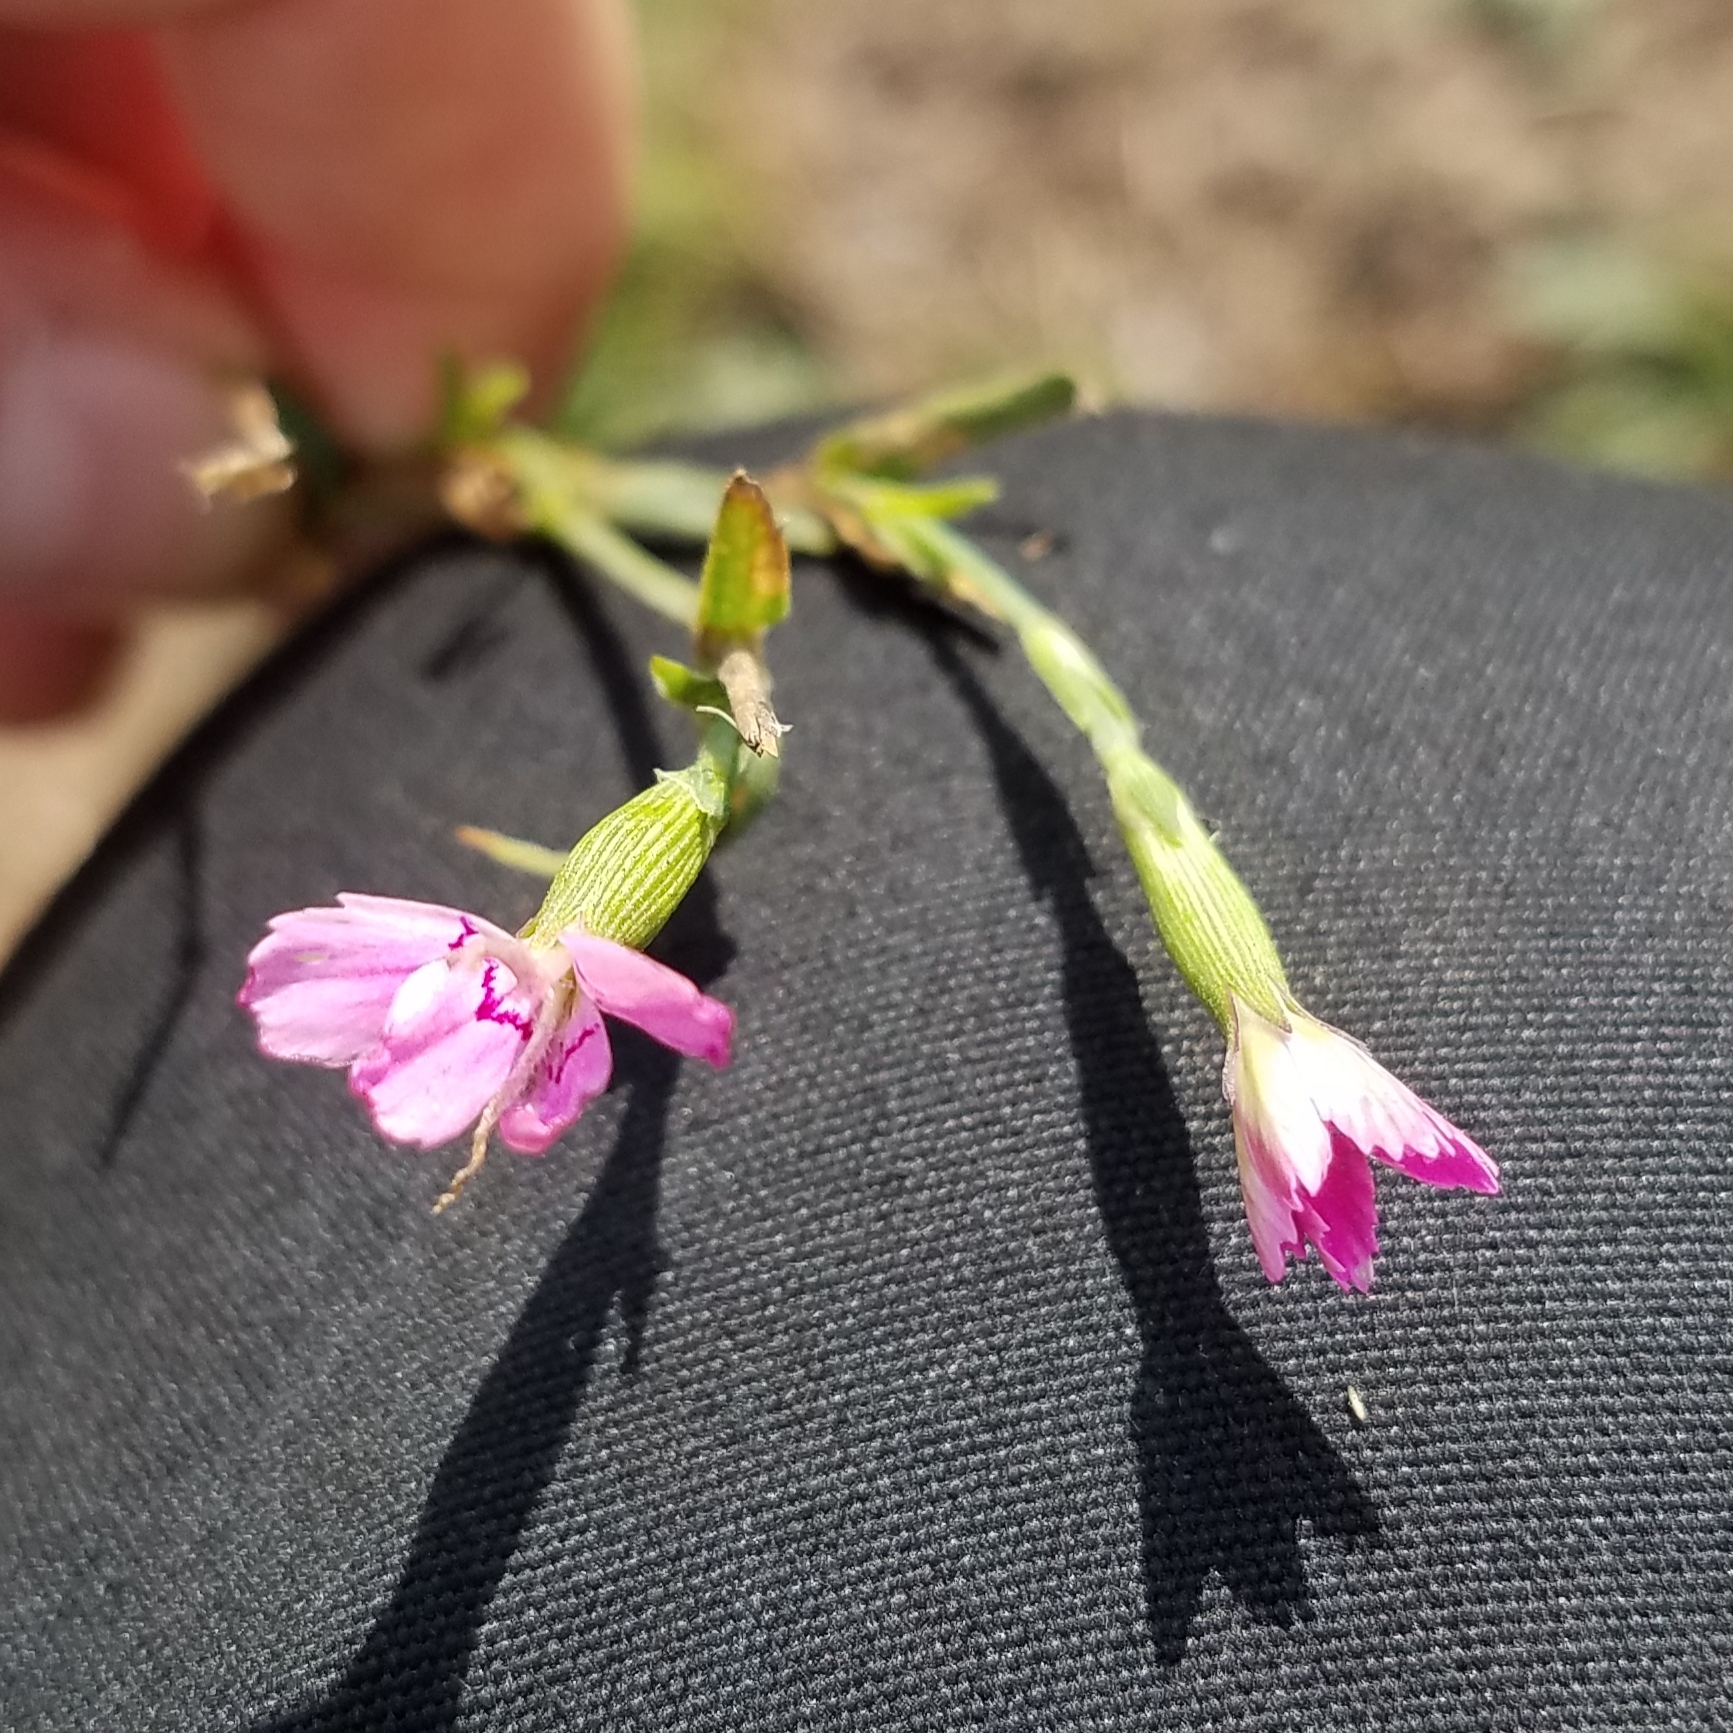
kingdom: Plantae
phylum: Tracheophyta
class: Magnoliopsida
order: Caryophyllales
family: Caryophyllaceae
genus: Dianthus
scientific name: Dianthus deltoides
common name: Maiden pink
